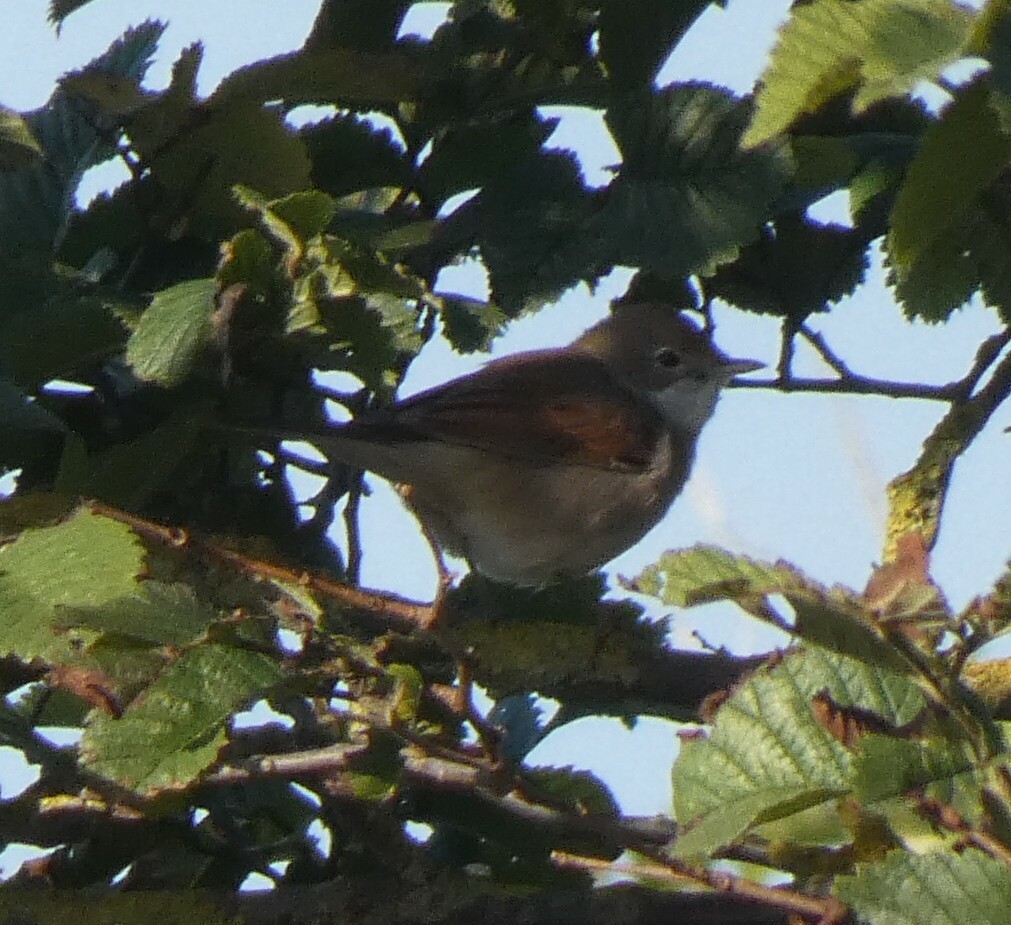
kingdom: Animalia
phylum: Chordata
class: Aves
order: Passeriformes
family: Sylviidae
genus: Sylvia
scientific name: Sylvia communis
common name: Common whitethroat
